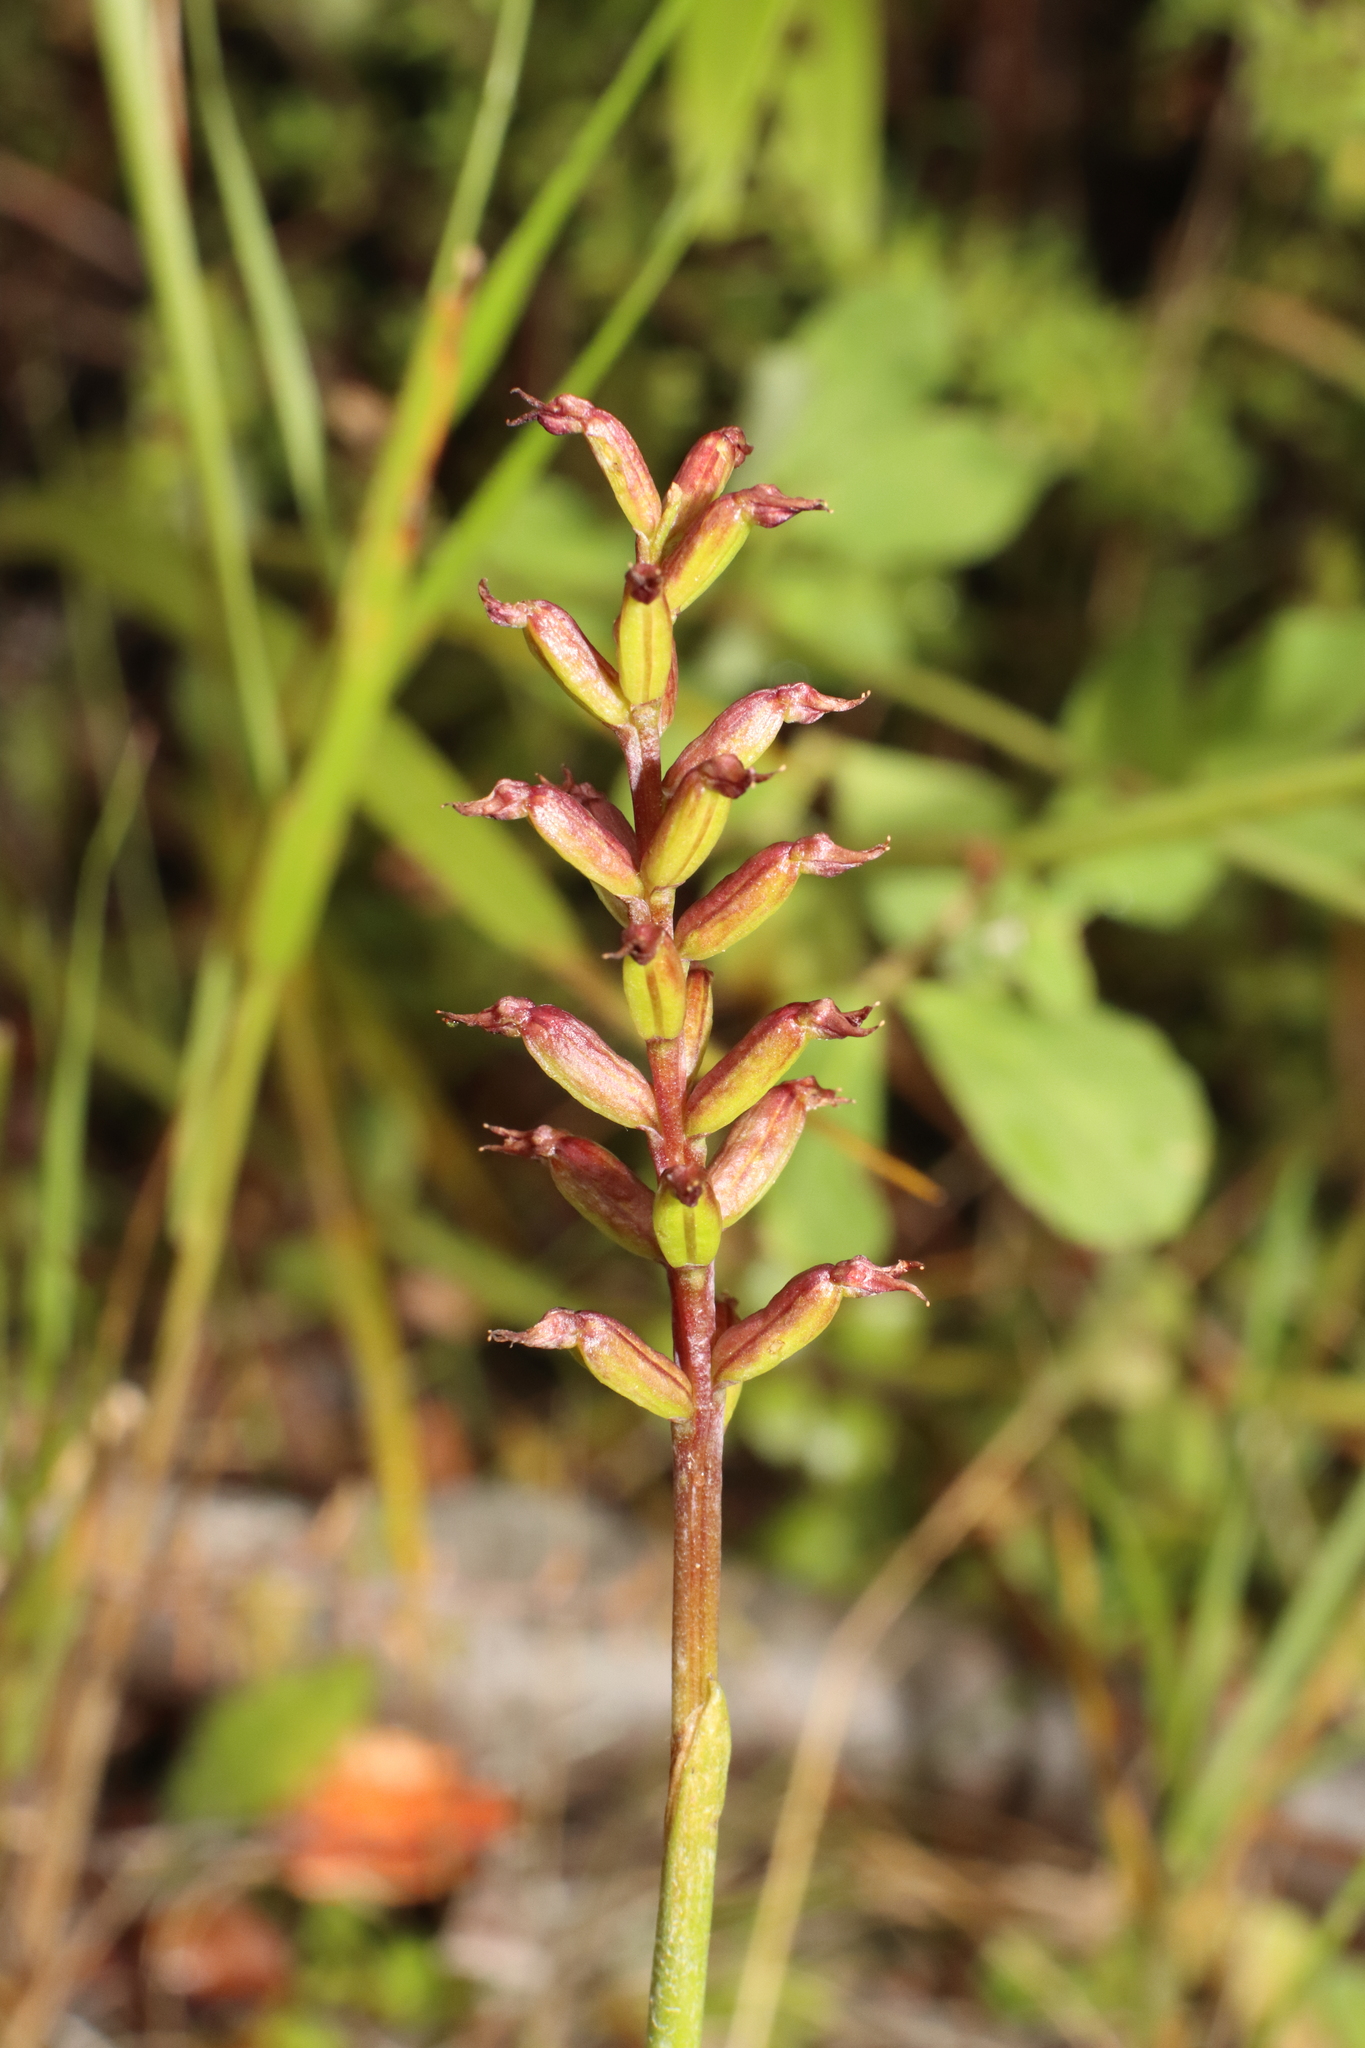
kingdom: Plantae
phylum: Tracheophyta
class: Liliopsida
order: Asparagales
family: Orchidaceae
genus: Genoplesium
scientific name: Genoplesium nudum
